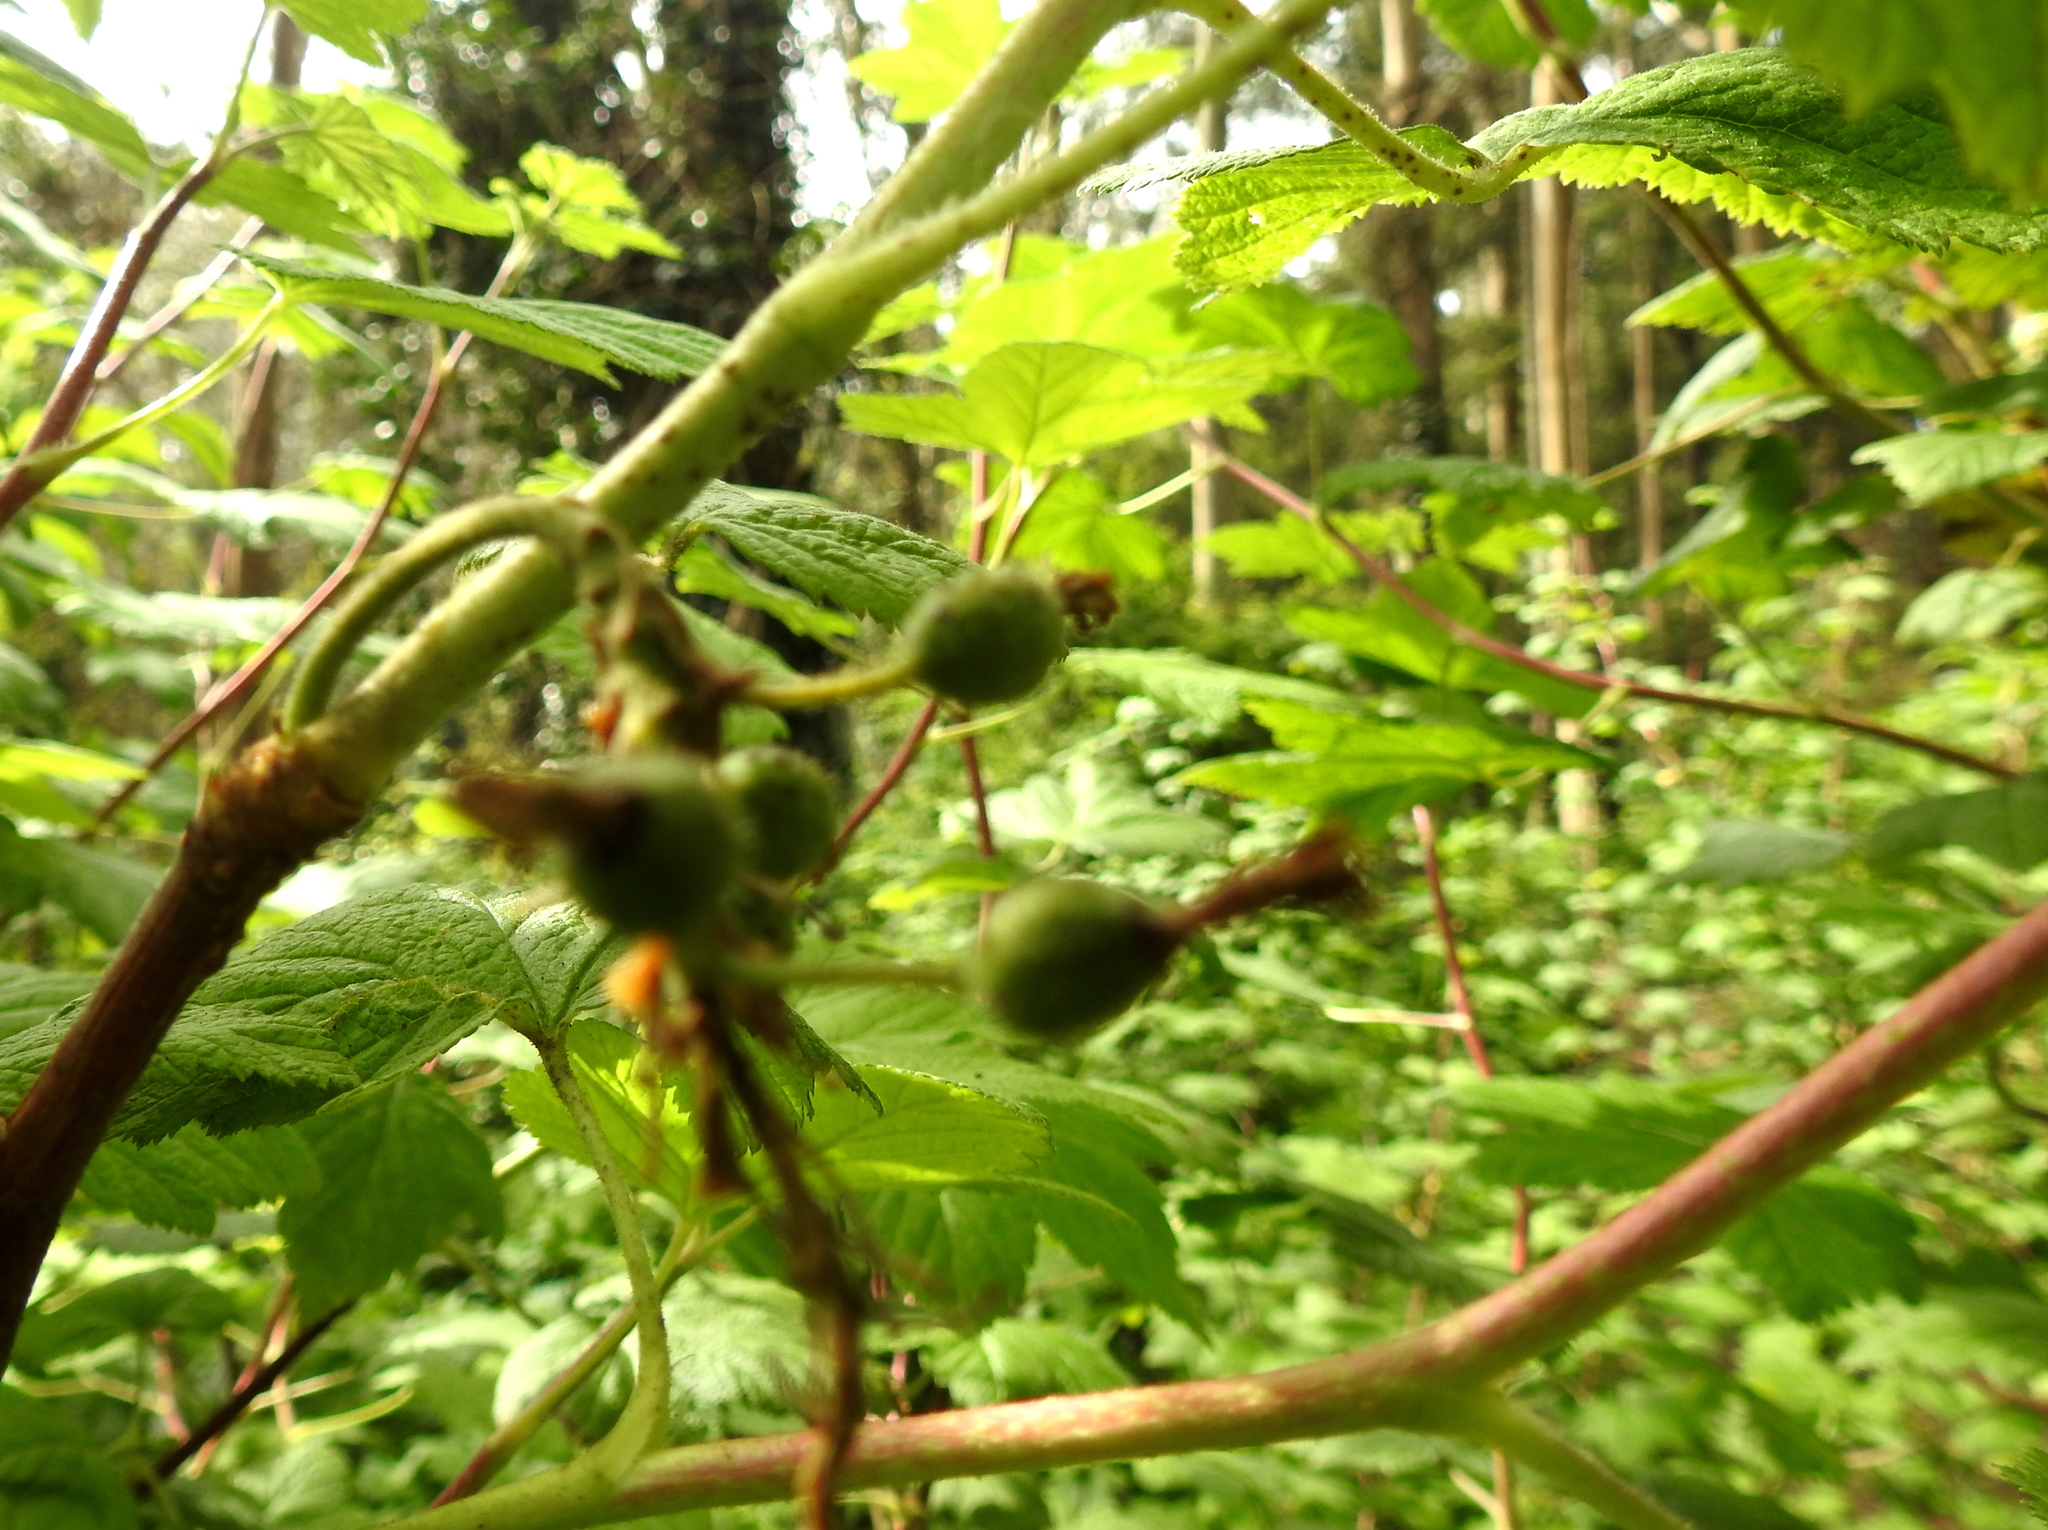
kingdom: Plantae
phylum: Tracheophyta
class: Magnoliopsida
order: Saxifragales
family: Grossulariaceae
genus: Ribes
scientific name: Ribes sanguineum
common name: Flowering currant
